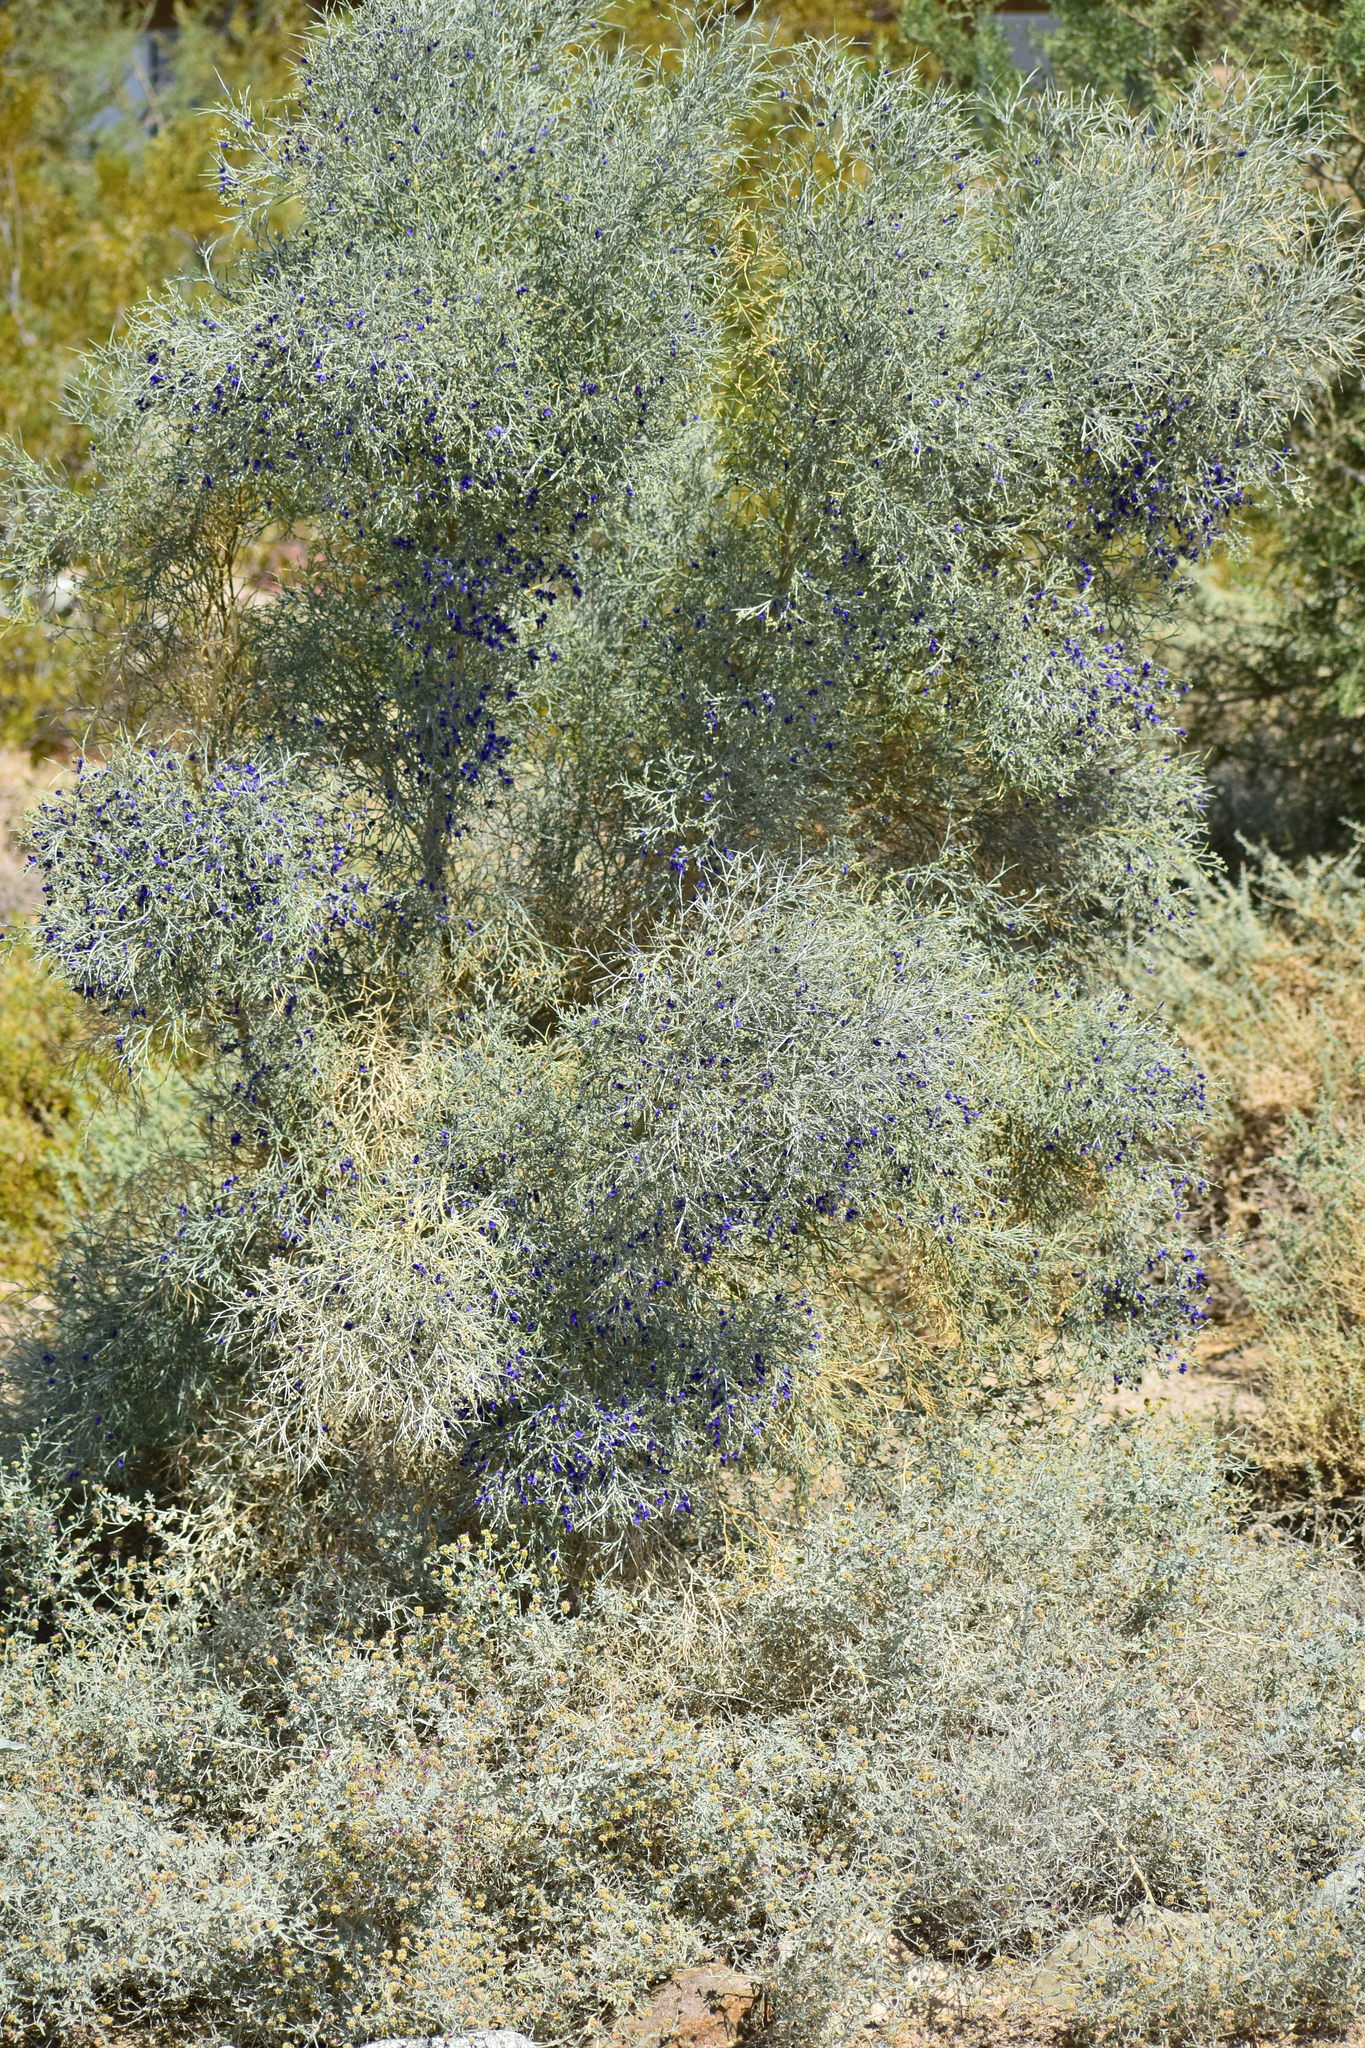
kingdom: Plantae
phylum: Tracheophyta
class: Magnoliopsida
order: Fabales
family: Fabaceae
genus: Psorothamnus
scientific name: Psorothamnus spinosus
